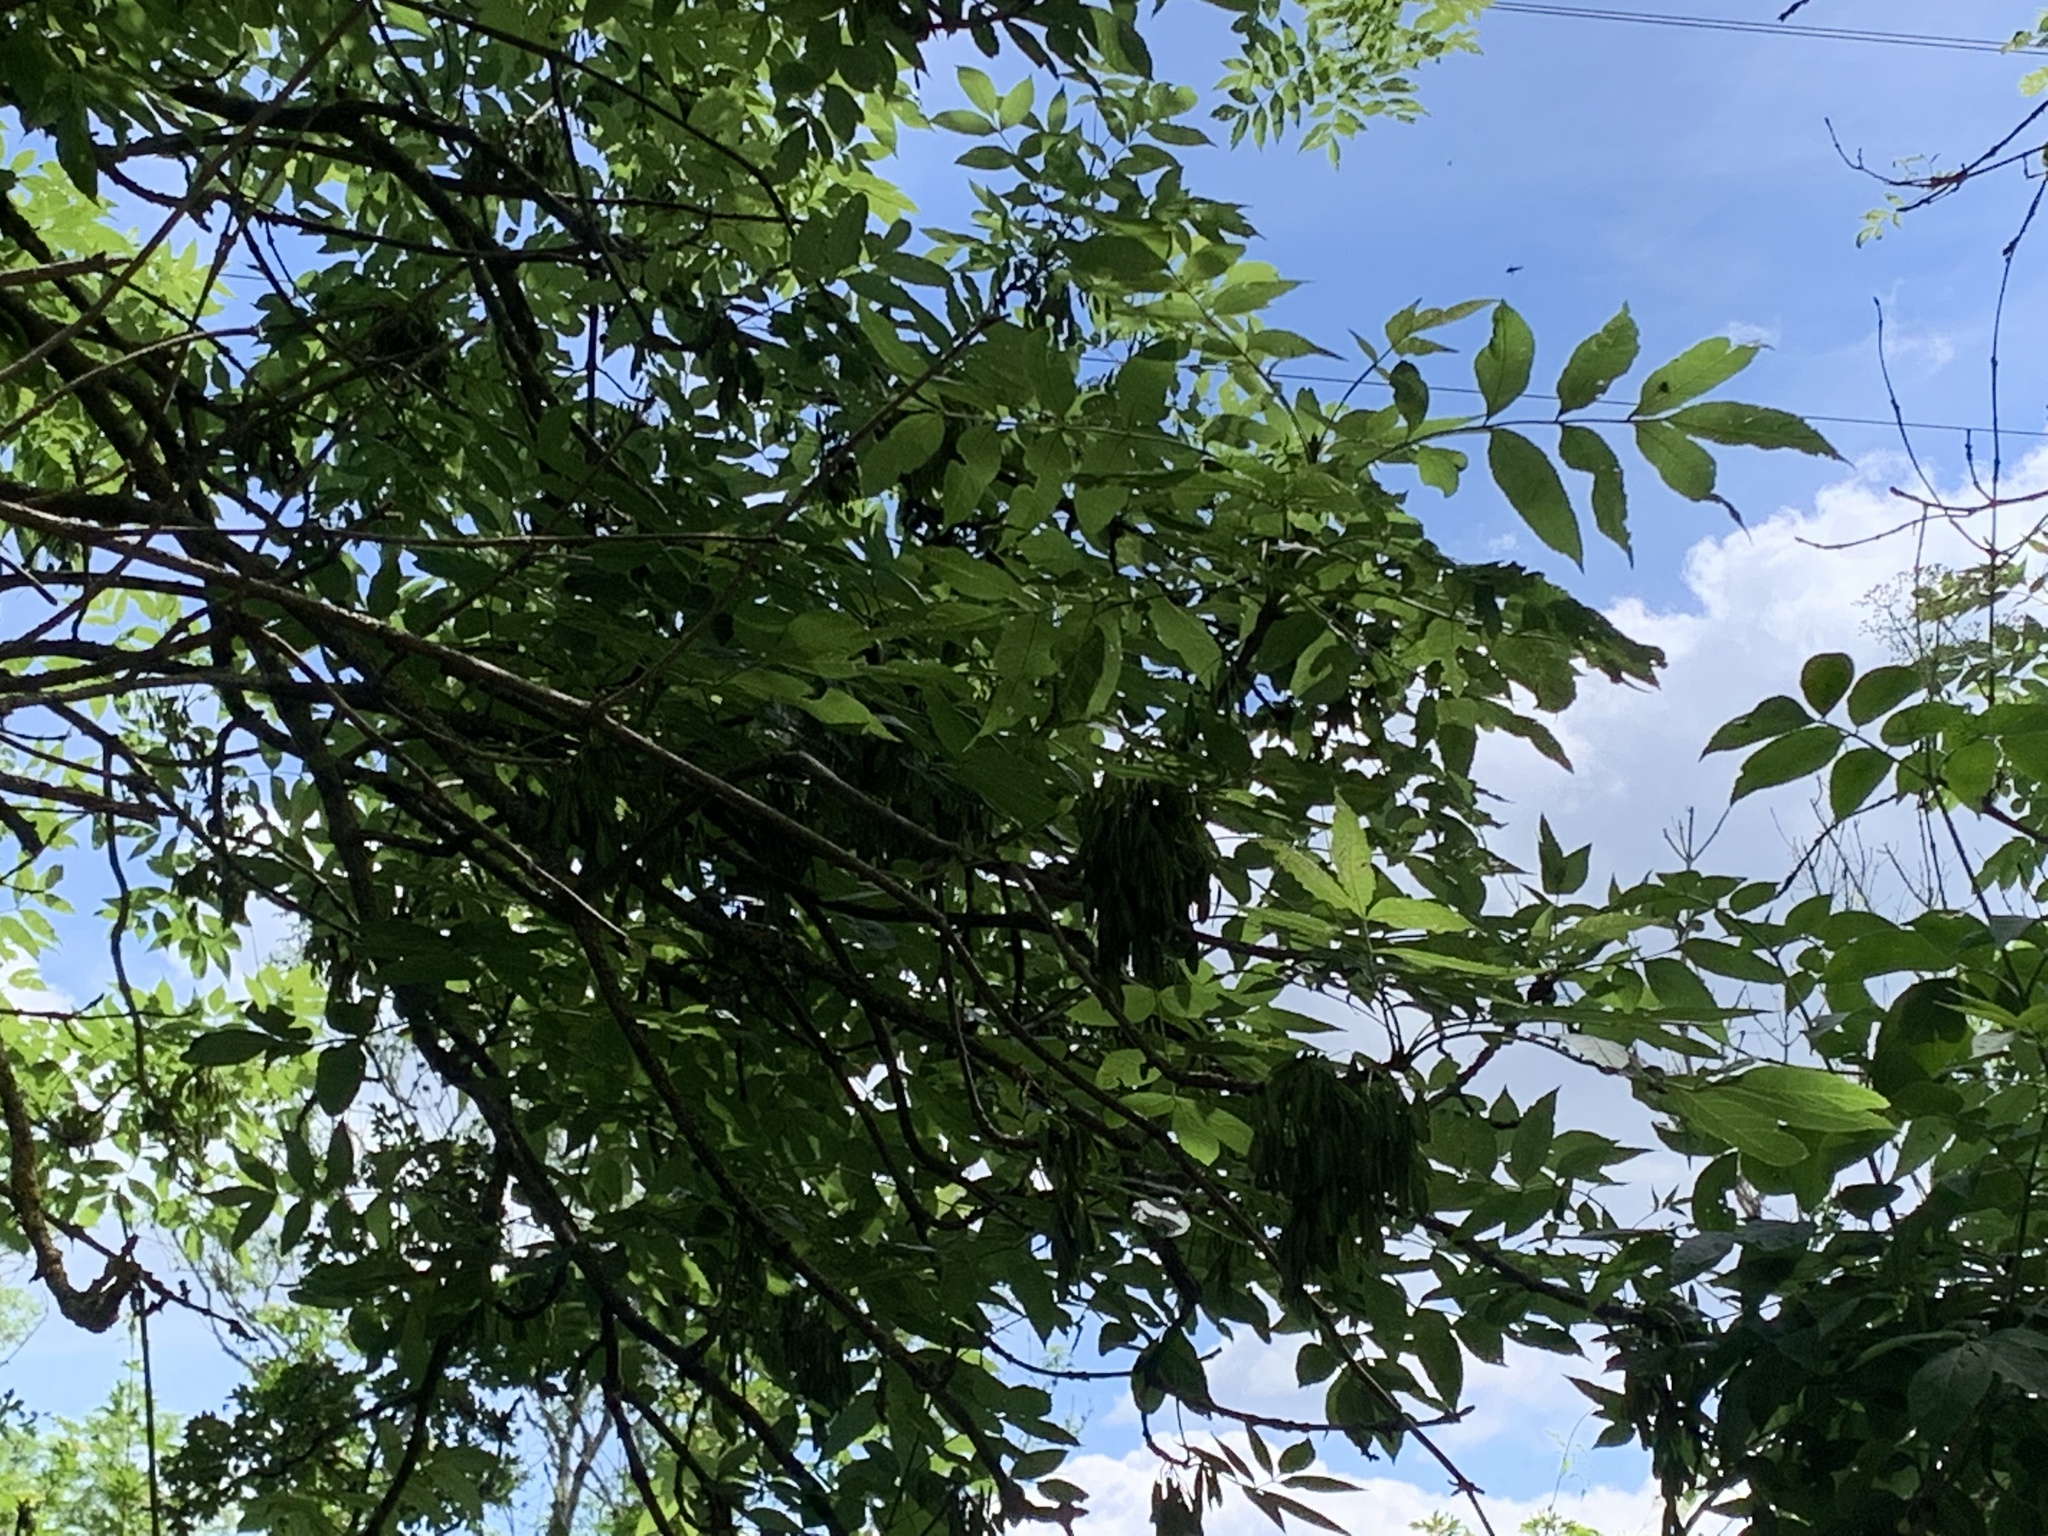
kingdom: Fungi
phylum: Ascomycota
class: Leotiomycetes
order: Helotiales
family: Helotiaceae
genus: Hymenoscyphus
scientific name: Hymenoscyphus fraxineus
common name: Ash dieback
